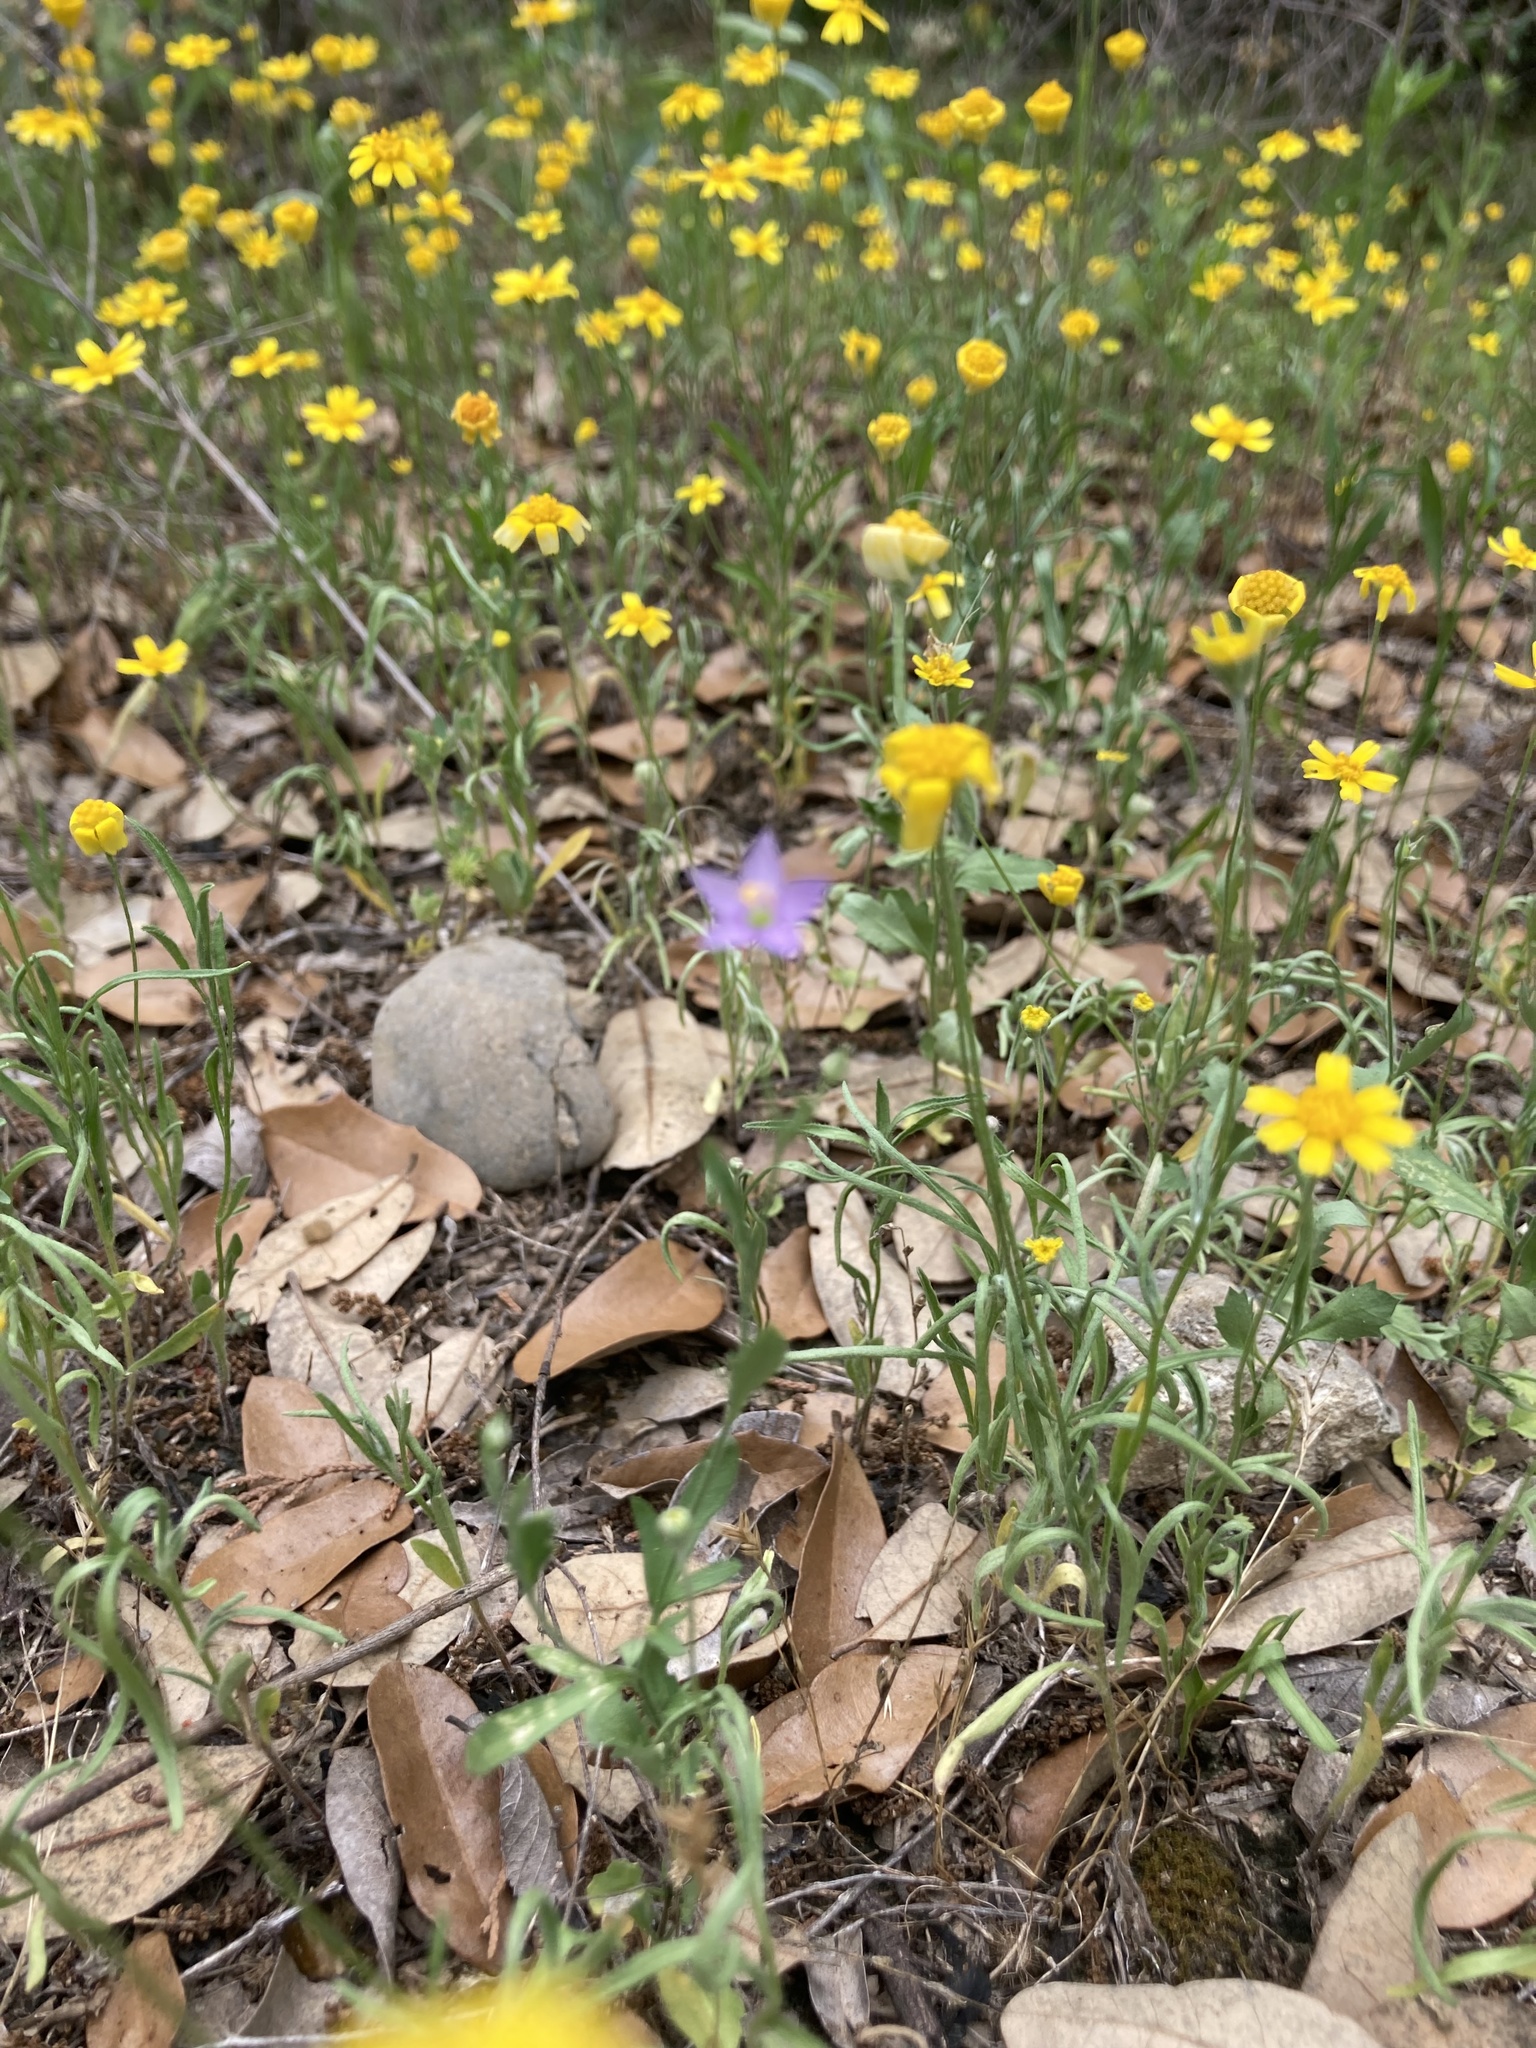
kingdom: Plantae
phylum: Tracheophyta
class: Magnoliopsida
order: Ericales
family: Polemoniaceae
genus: Giliastrum
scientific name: Giliastrum incisum
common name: Splitleaf gilia
